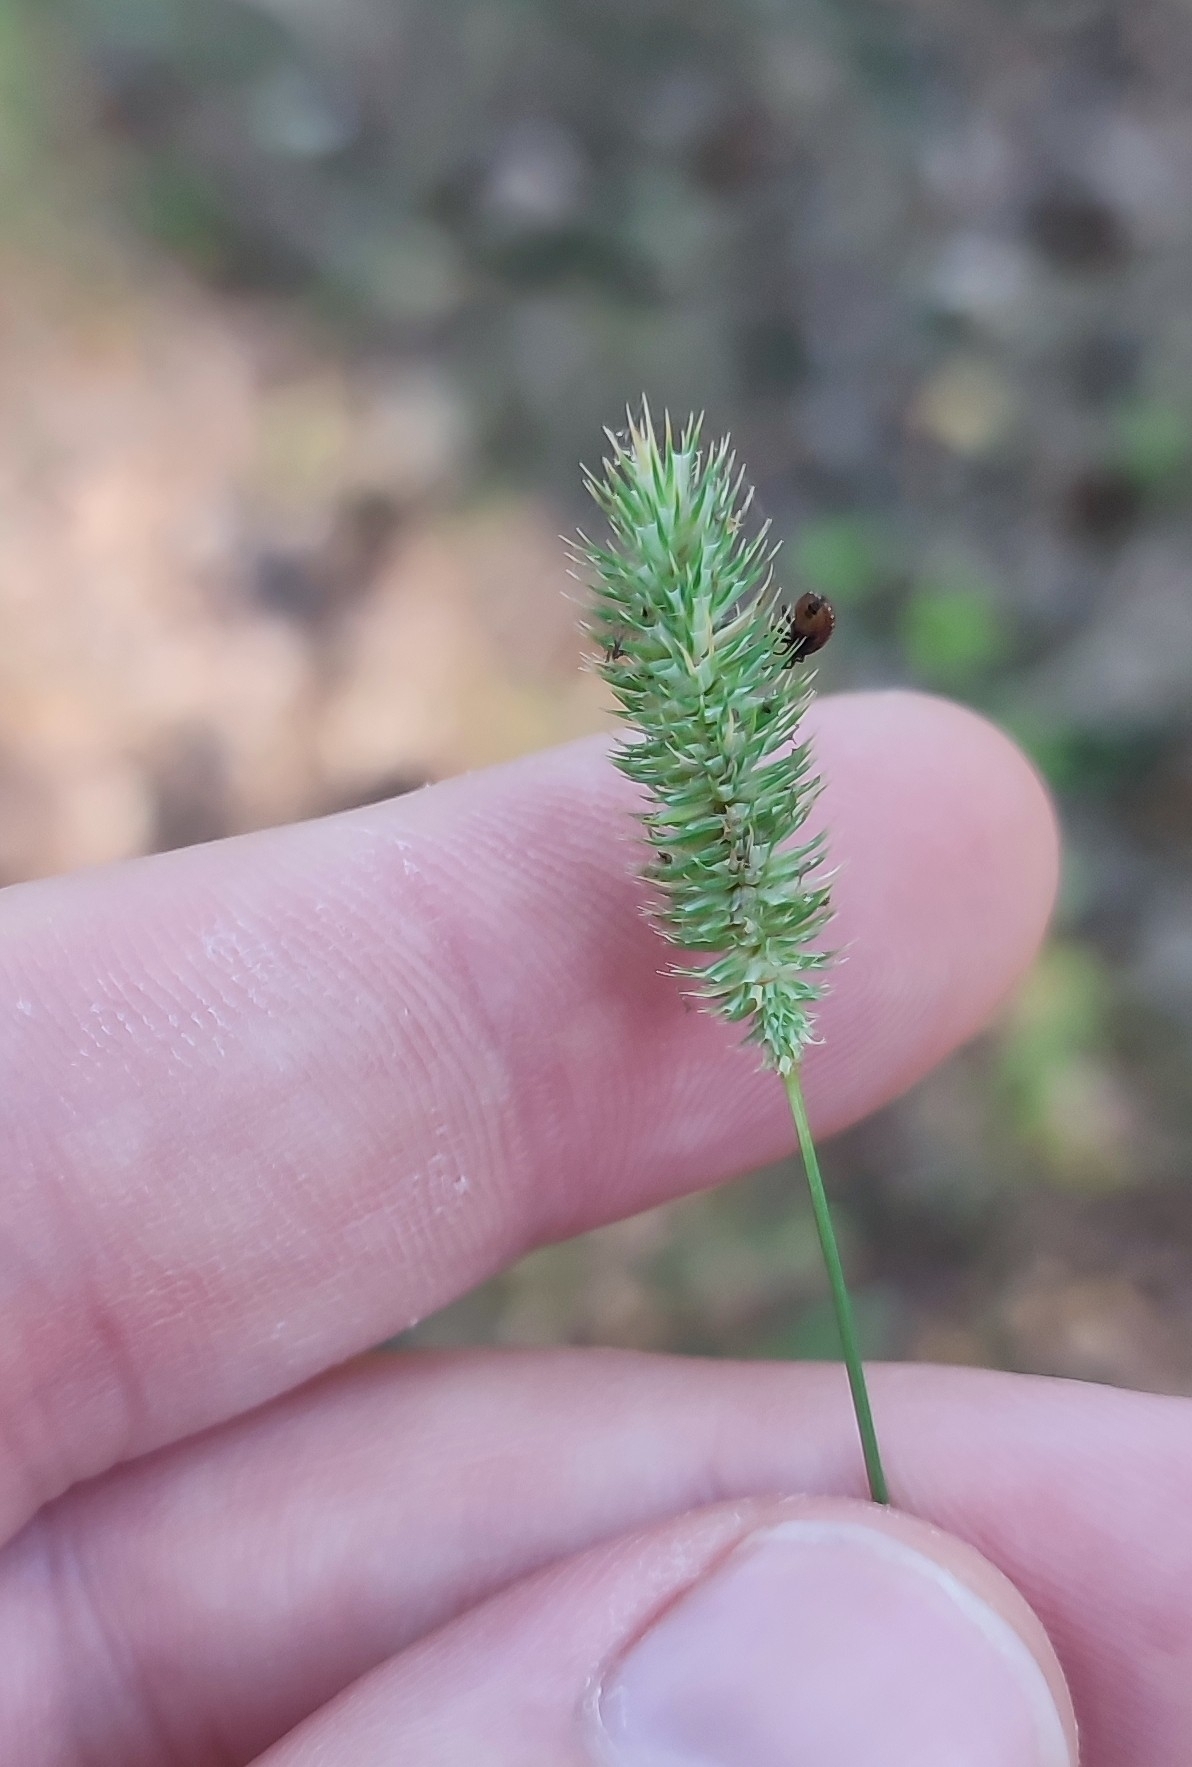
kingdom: Plantae
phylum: Tracheophyta
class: Liliopsida
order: Poales
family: Poaceae
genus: Phleum
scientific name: Phleum pratense
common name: Timothy grass
